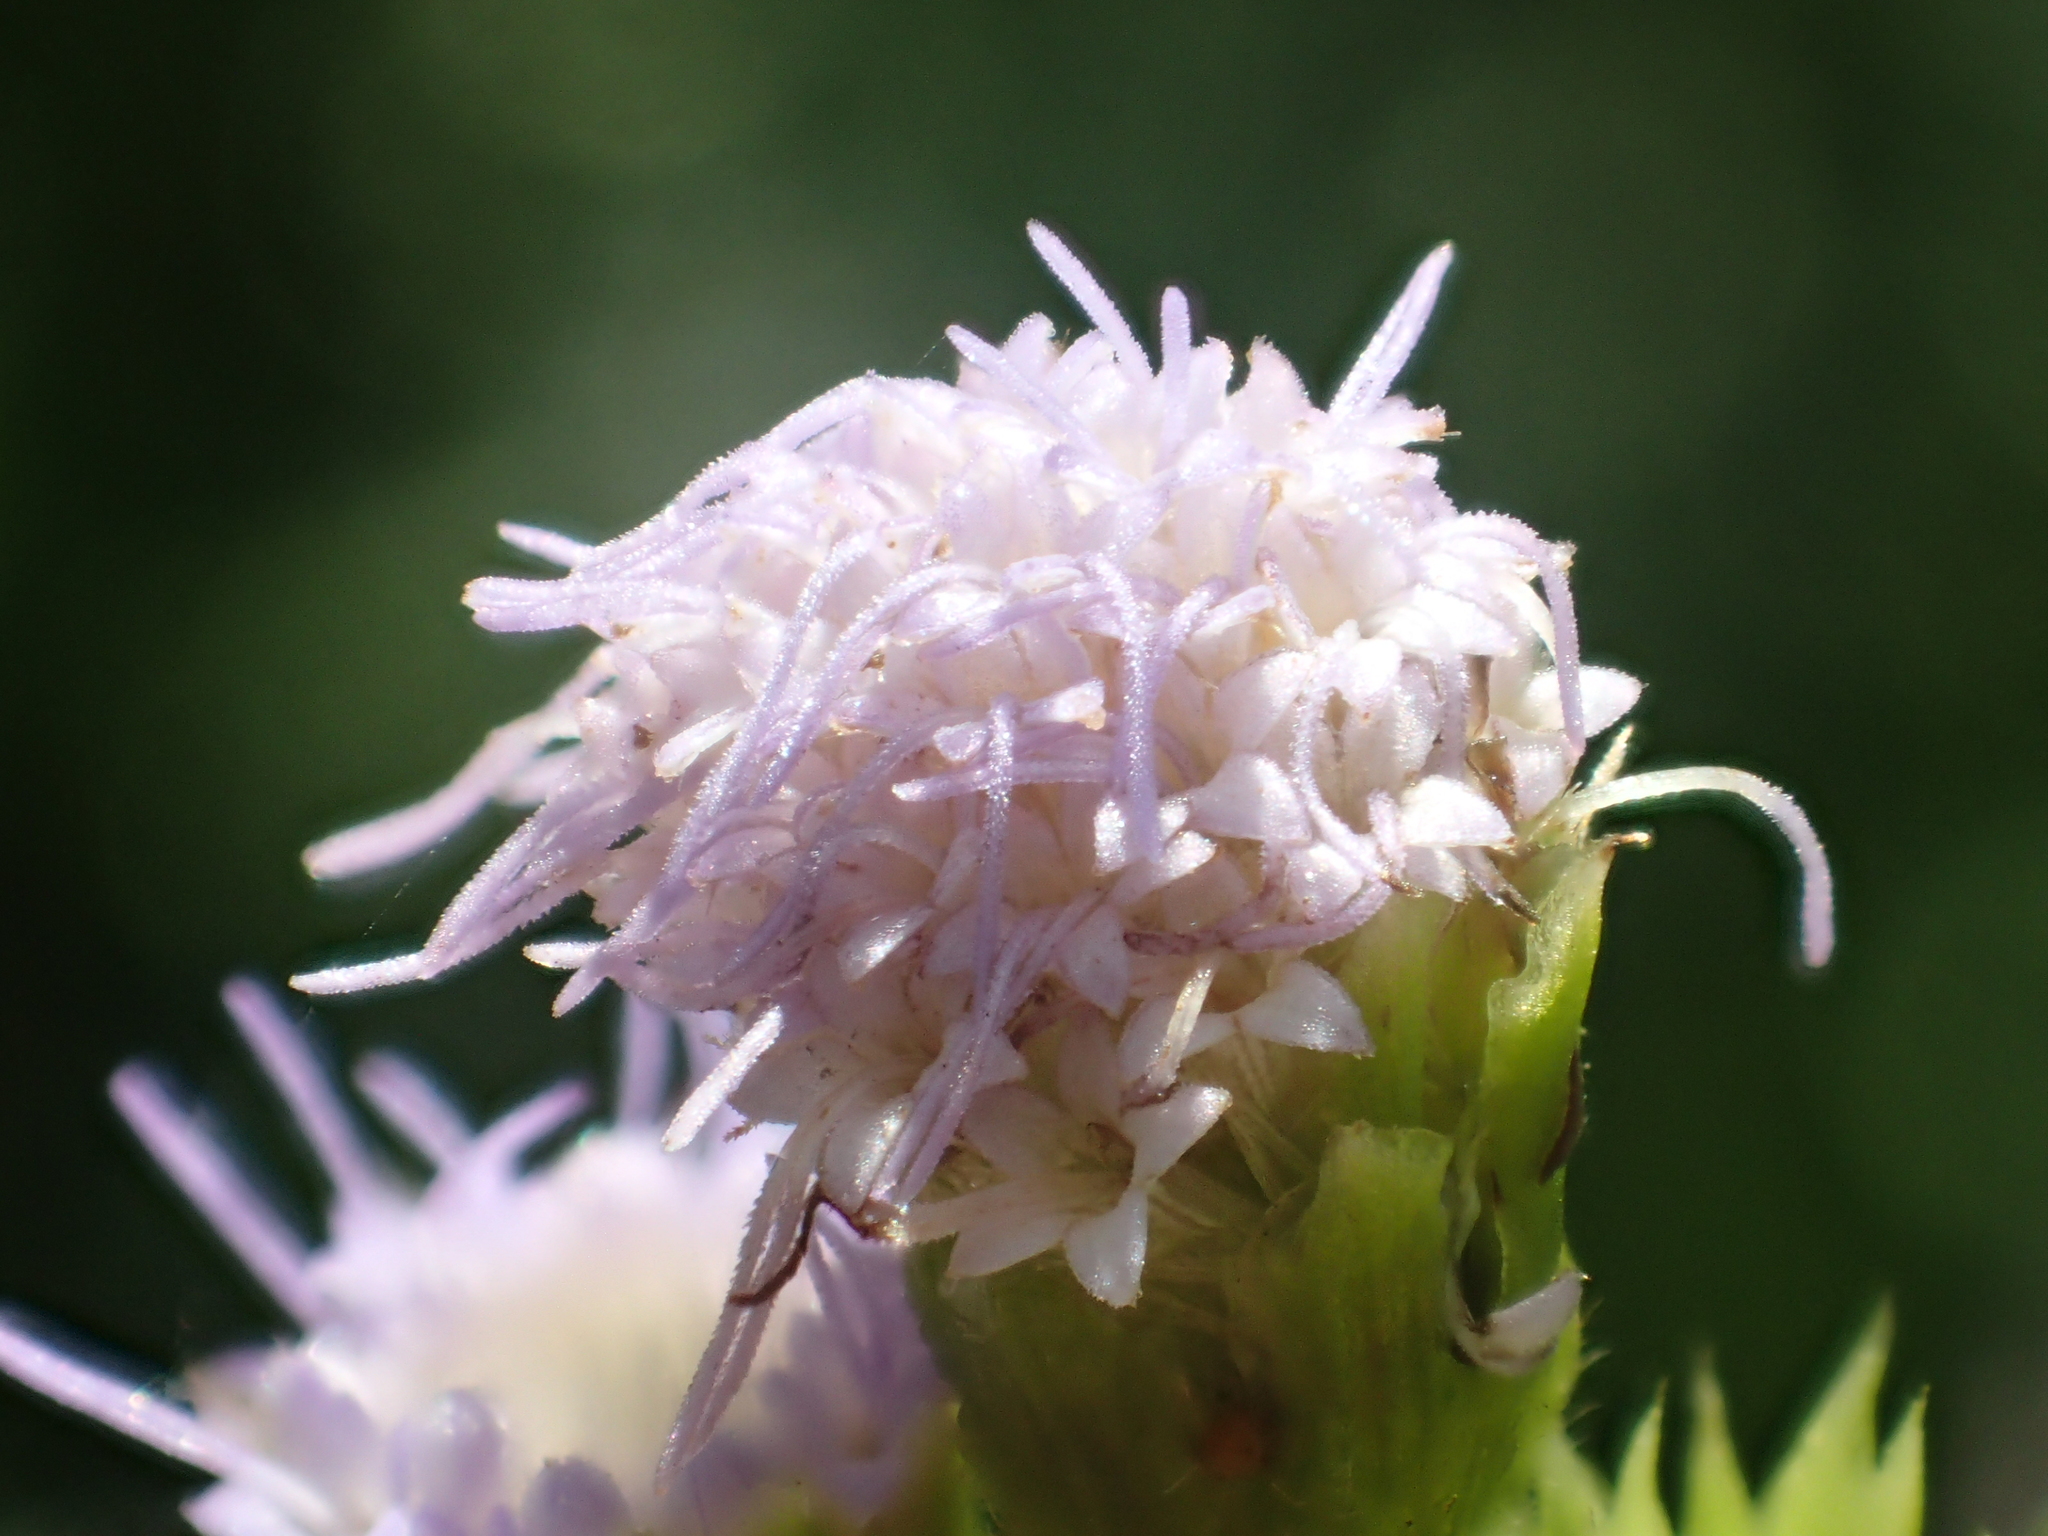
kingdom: Plantae
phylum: Tracheophyta
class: Magnoliopsida
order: Asterales
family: Asteraceae
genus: Praxelis
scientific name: Praxelis clematidea
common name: Praxelis
